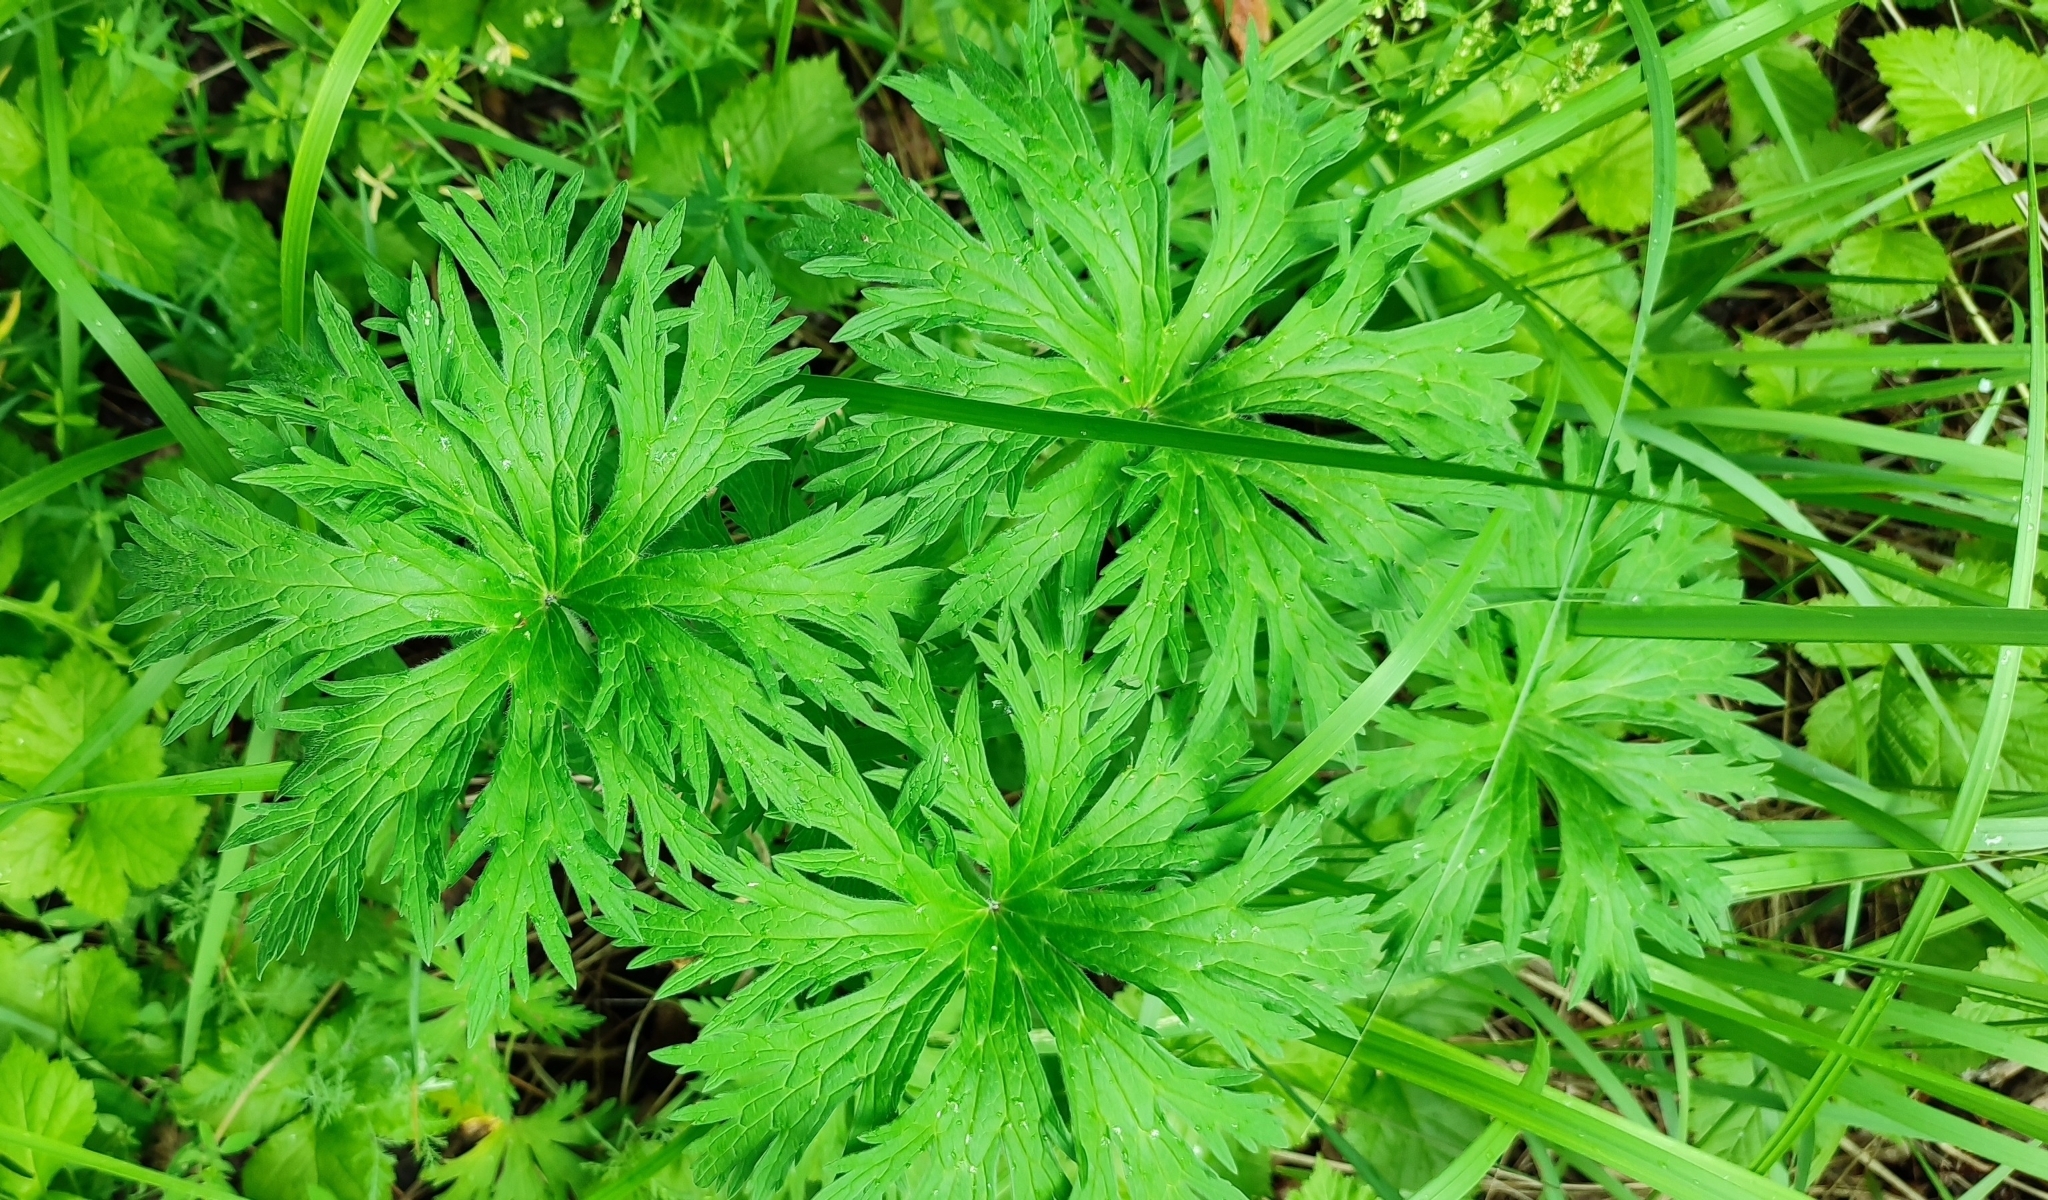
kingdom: Plantae
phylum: Tracheophyta
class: Magnoliopsida
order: Geraniales
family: Geraniaceae
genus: Geranium
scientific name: Geranium pratense
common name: Meadow crane's-bill
